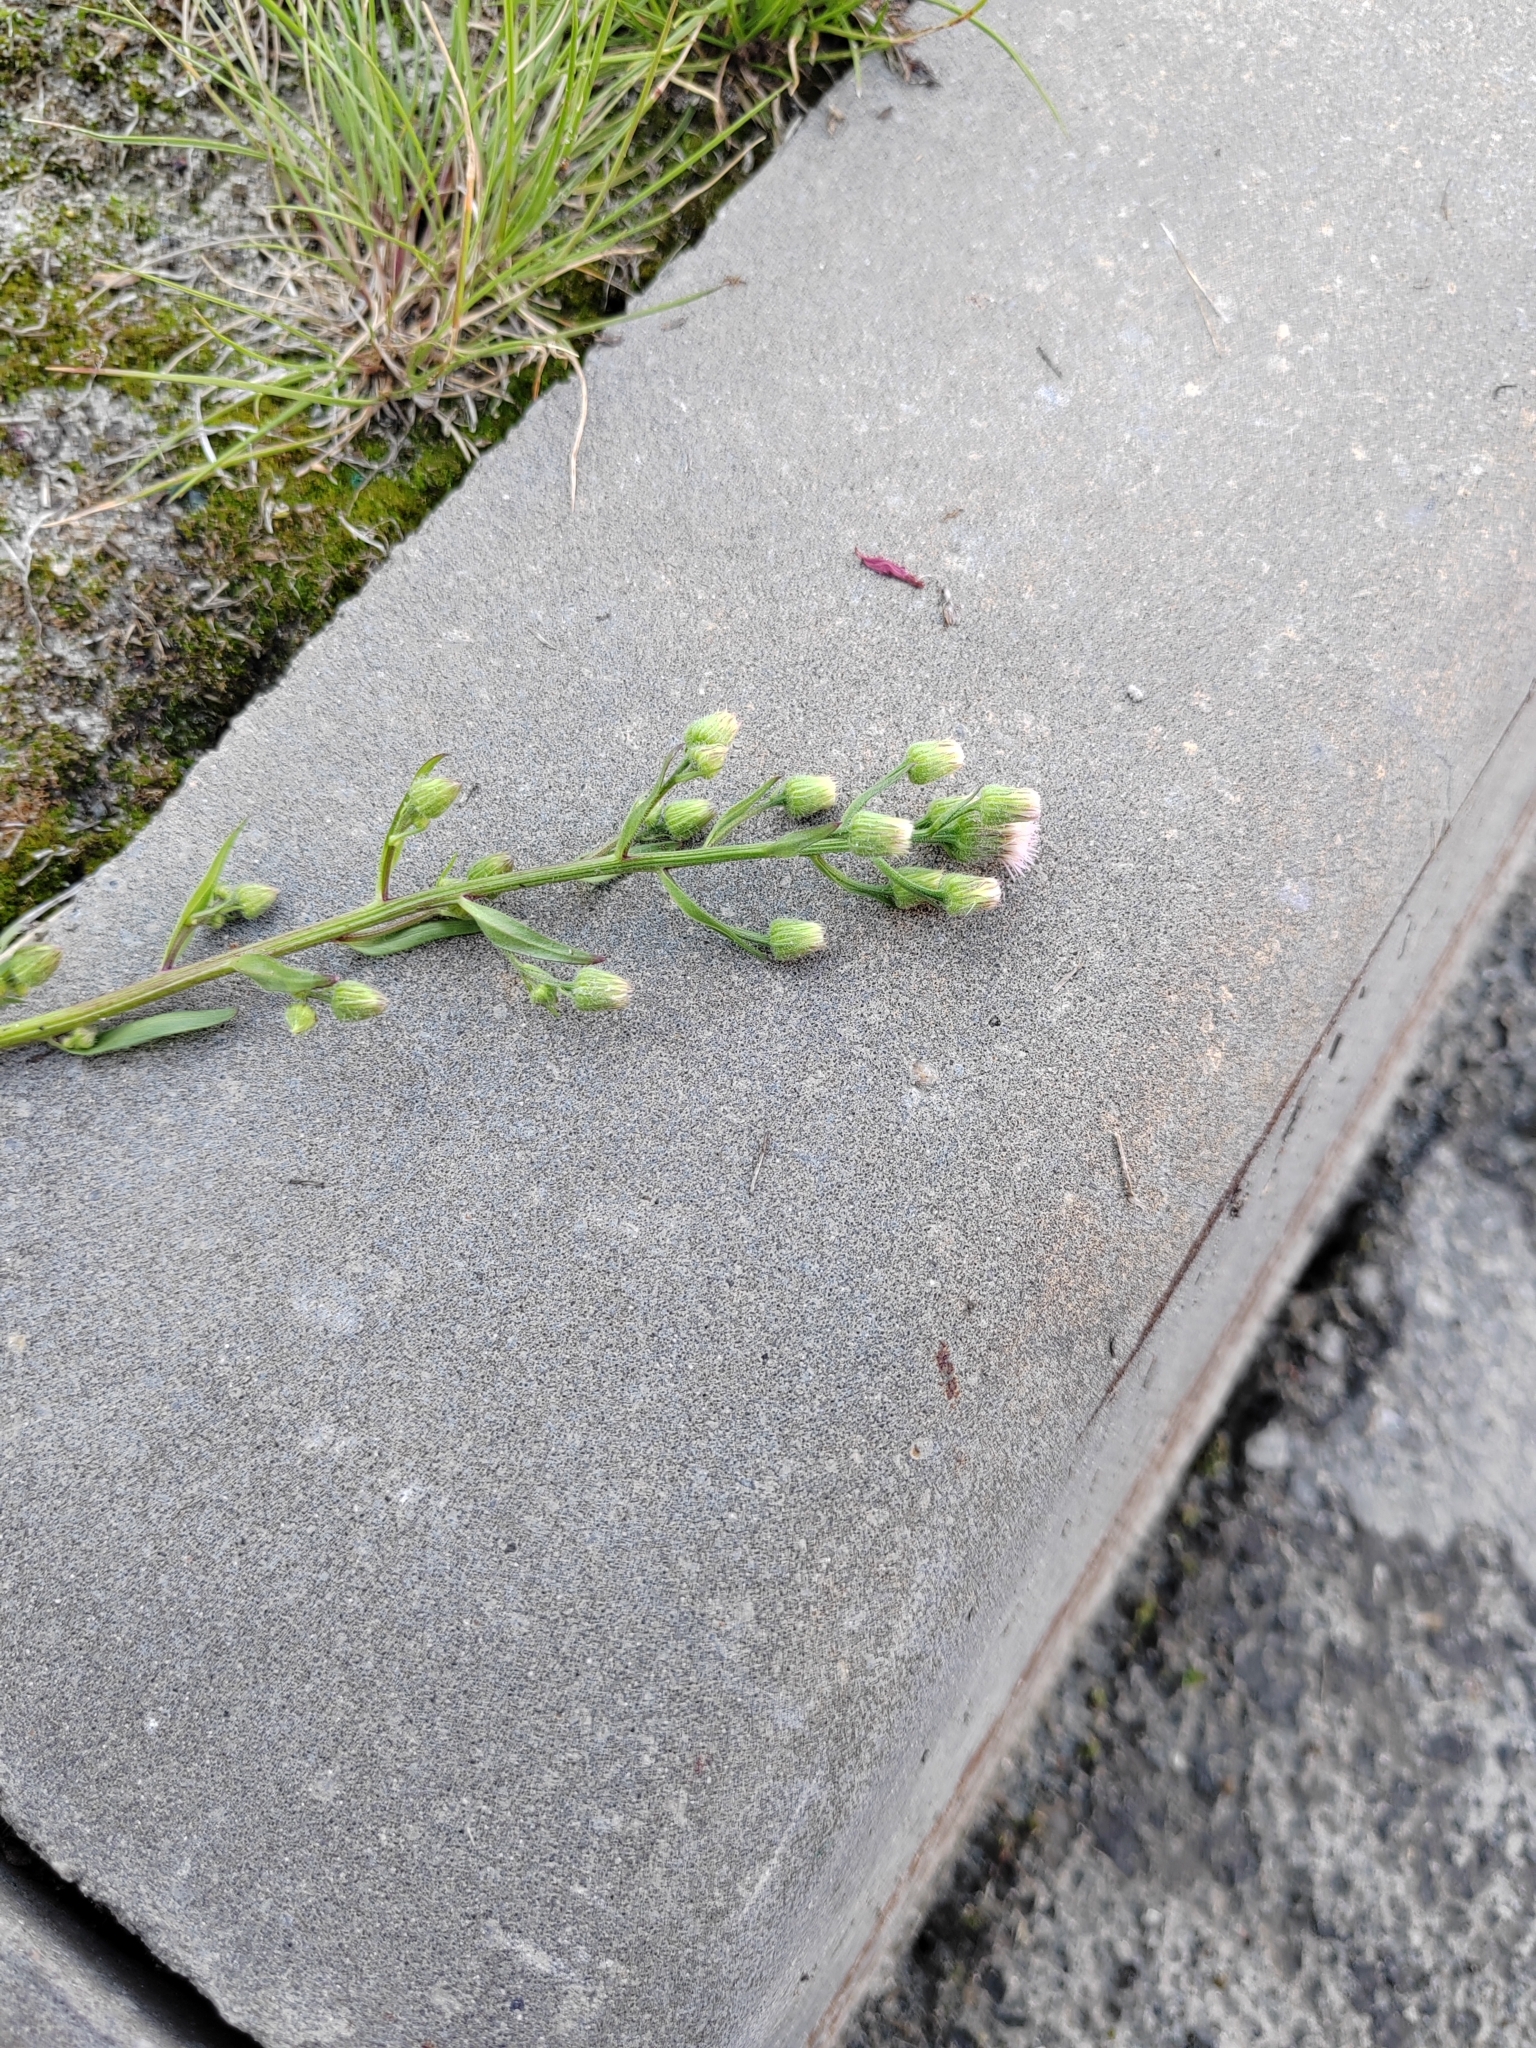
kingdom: Plantae
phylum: Tracheophyta
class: Magnoliopsida
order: Asterales
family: Asteraceae
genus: Erigeron
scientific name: Erigeron acris
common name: Blue fleabane
